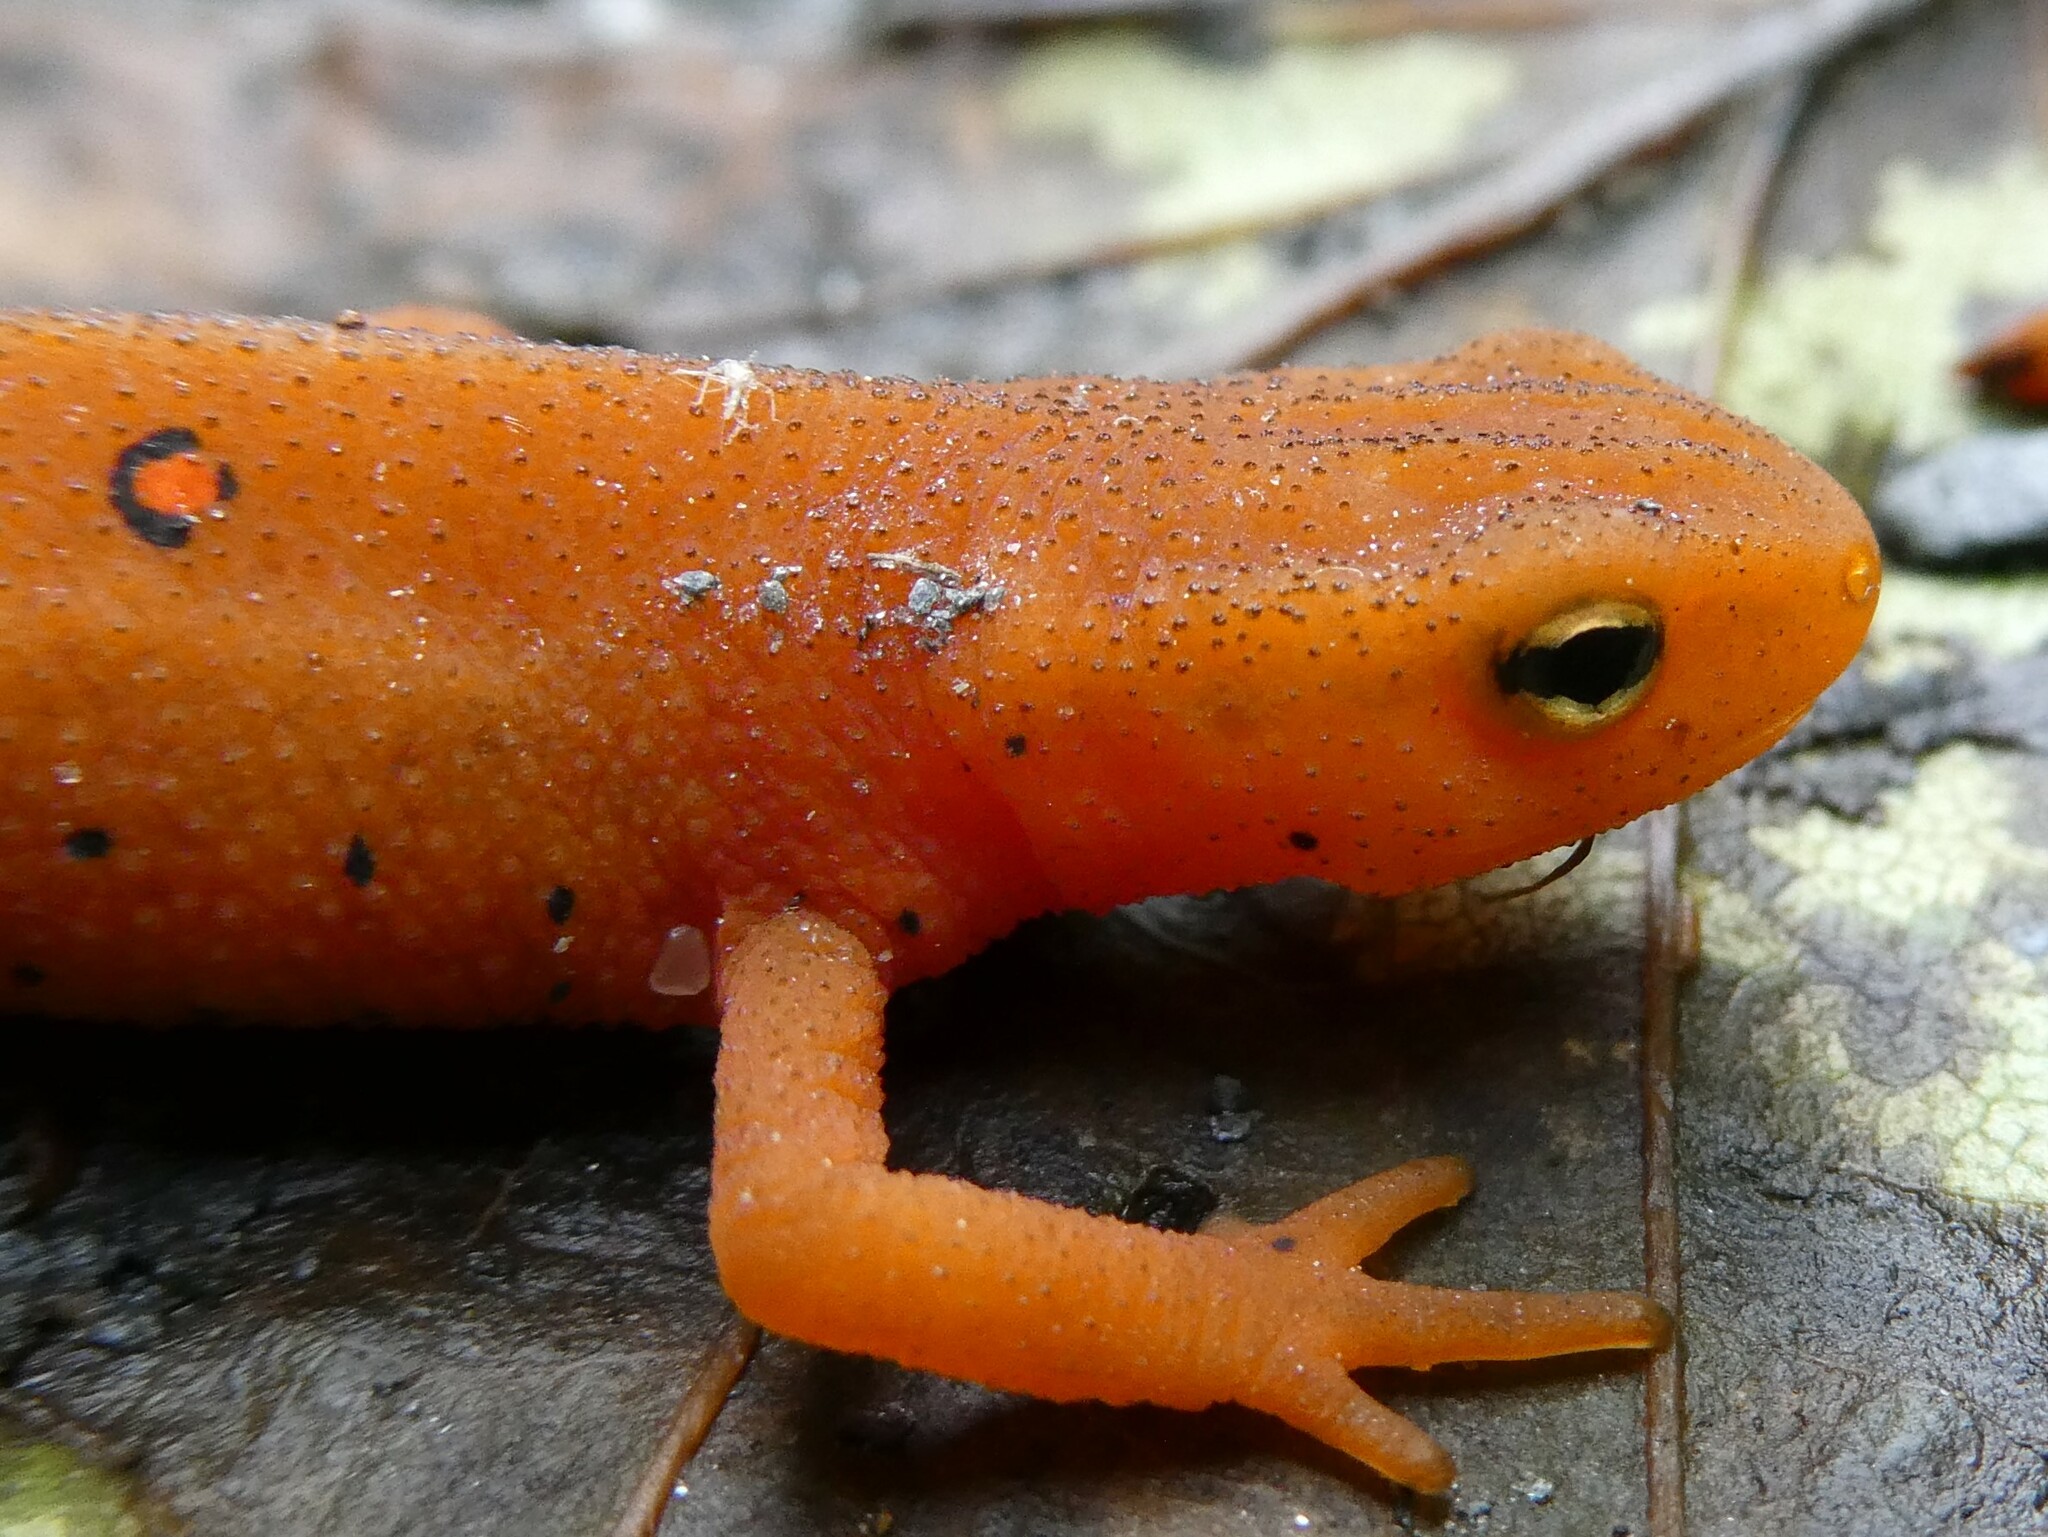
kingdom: Animalia
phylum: Chordata
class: Amphibia
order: Caudata
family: Salamandridae
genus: Notophthalmus
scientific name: Notophthalmus viridescens
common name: Eastern newt
